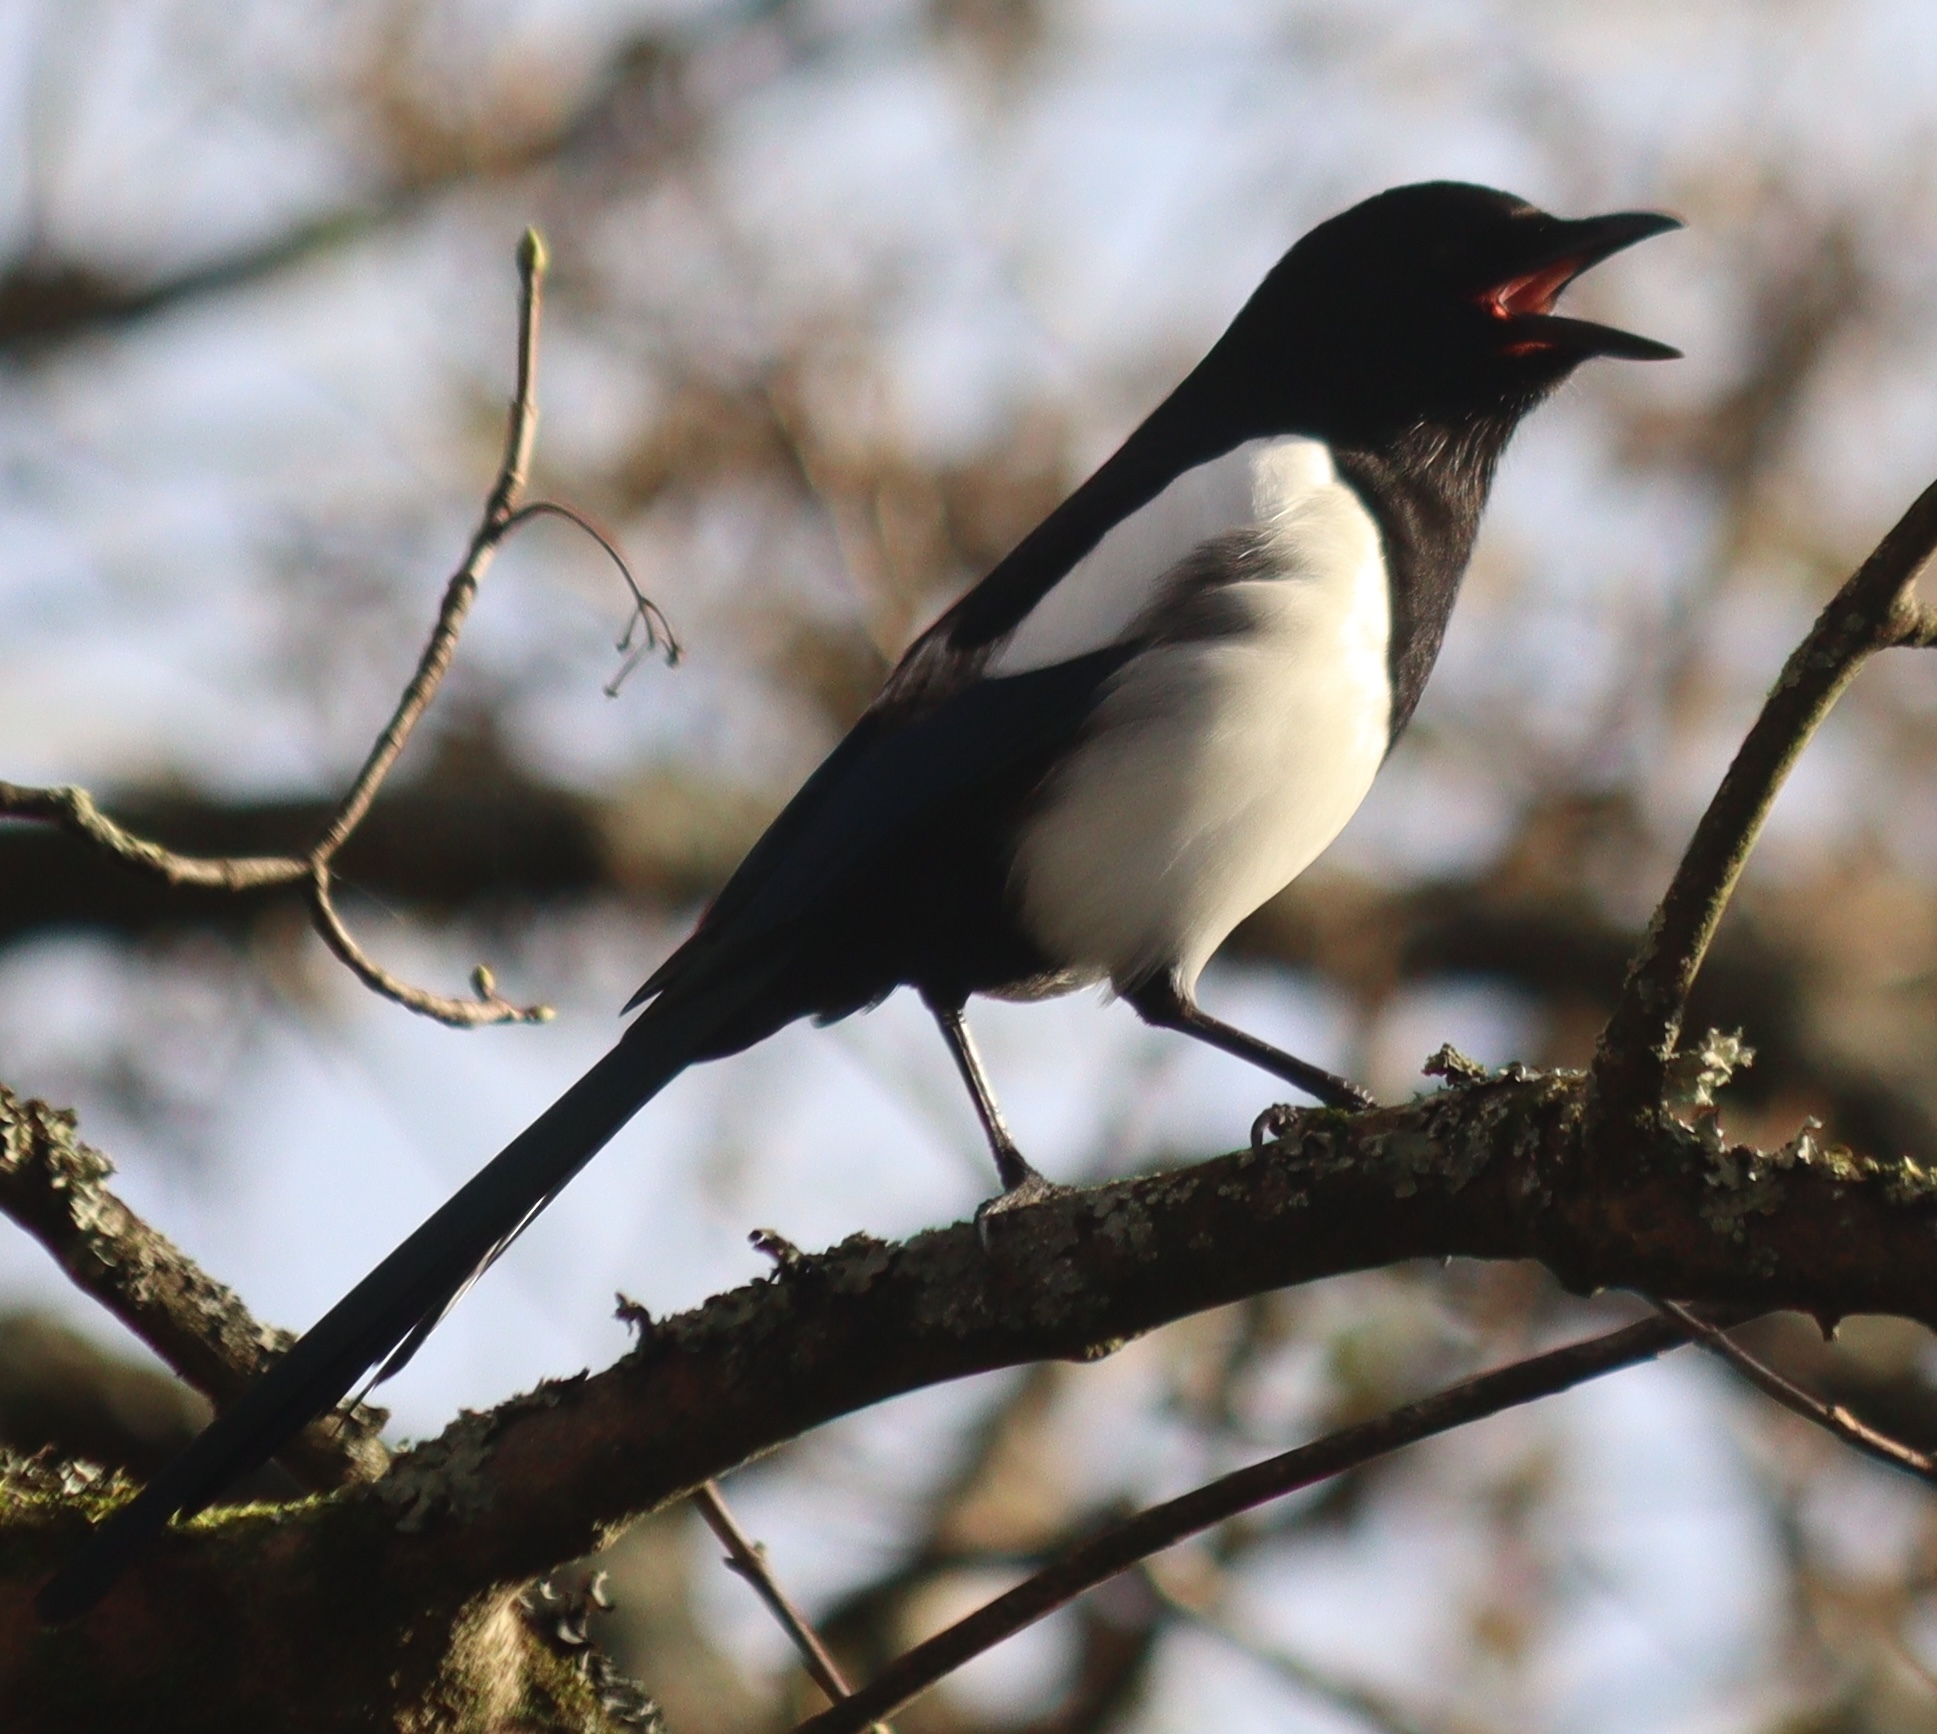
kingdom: Animalia
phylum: Chordata
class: Aves
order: Passeriformes
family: Corvidae
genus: Pica
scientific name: Pica pica
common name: Eurasian magpie
